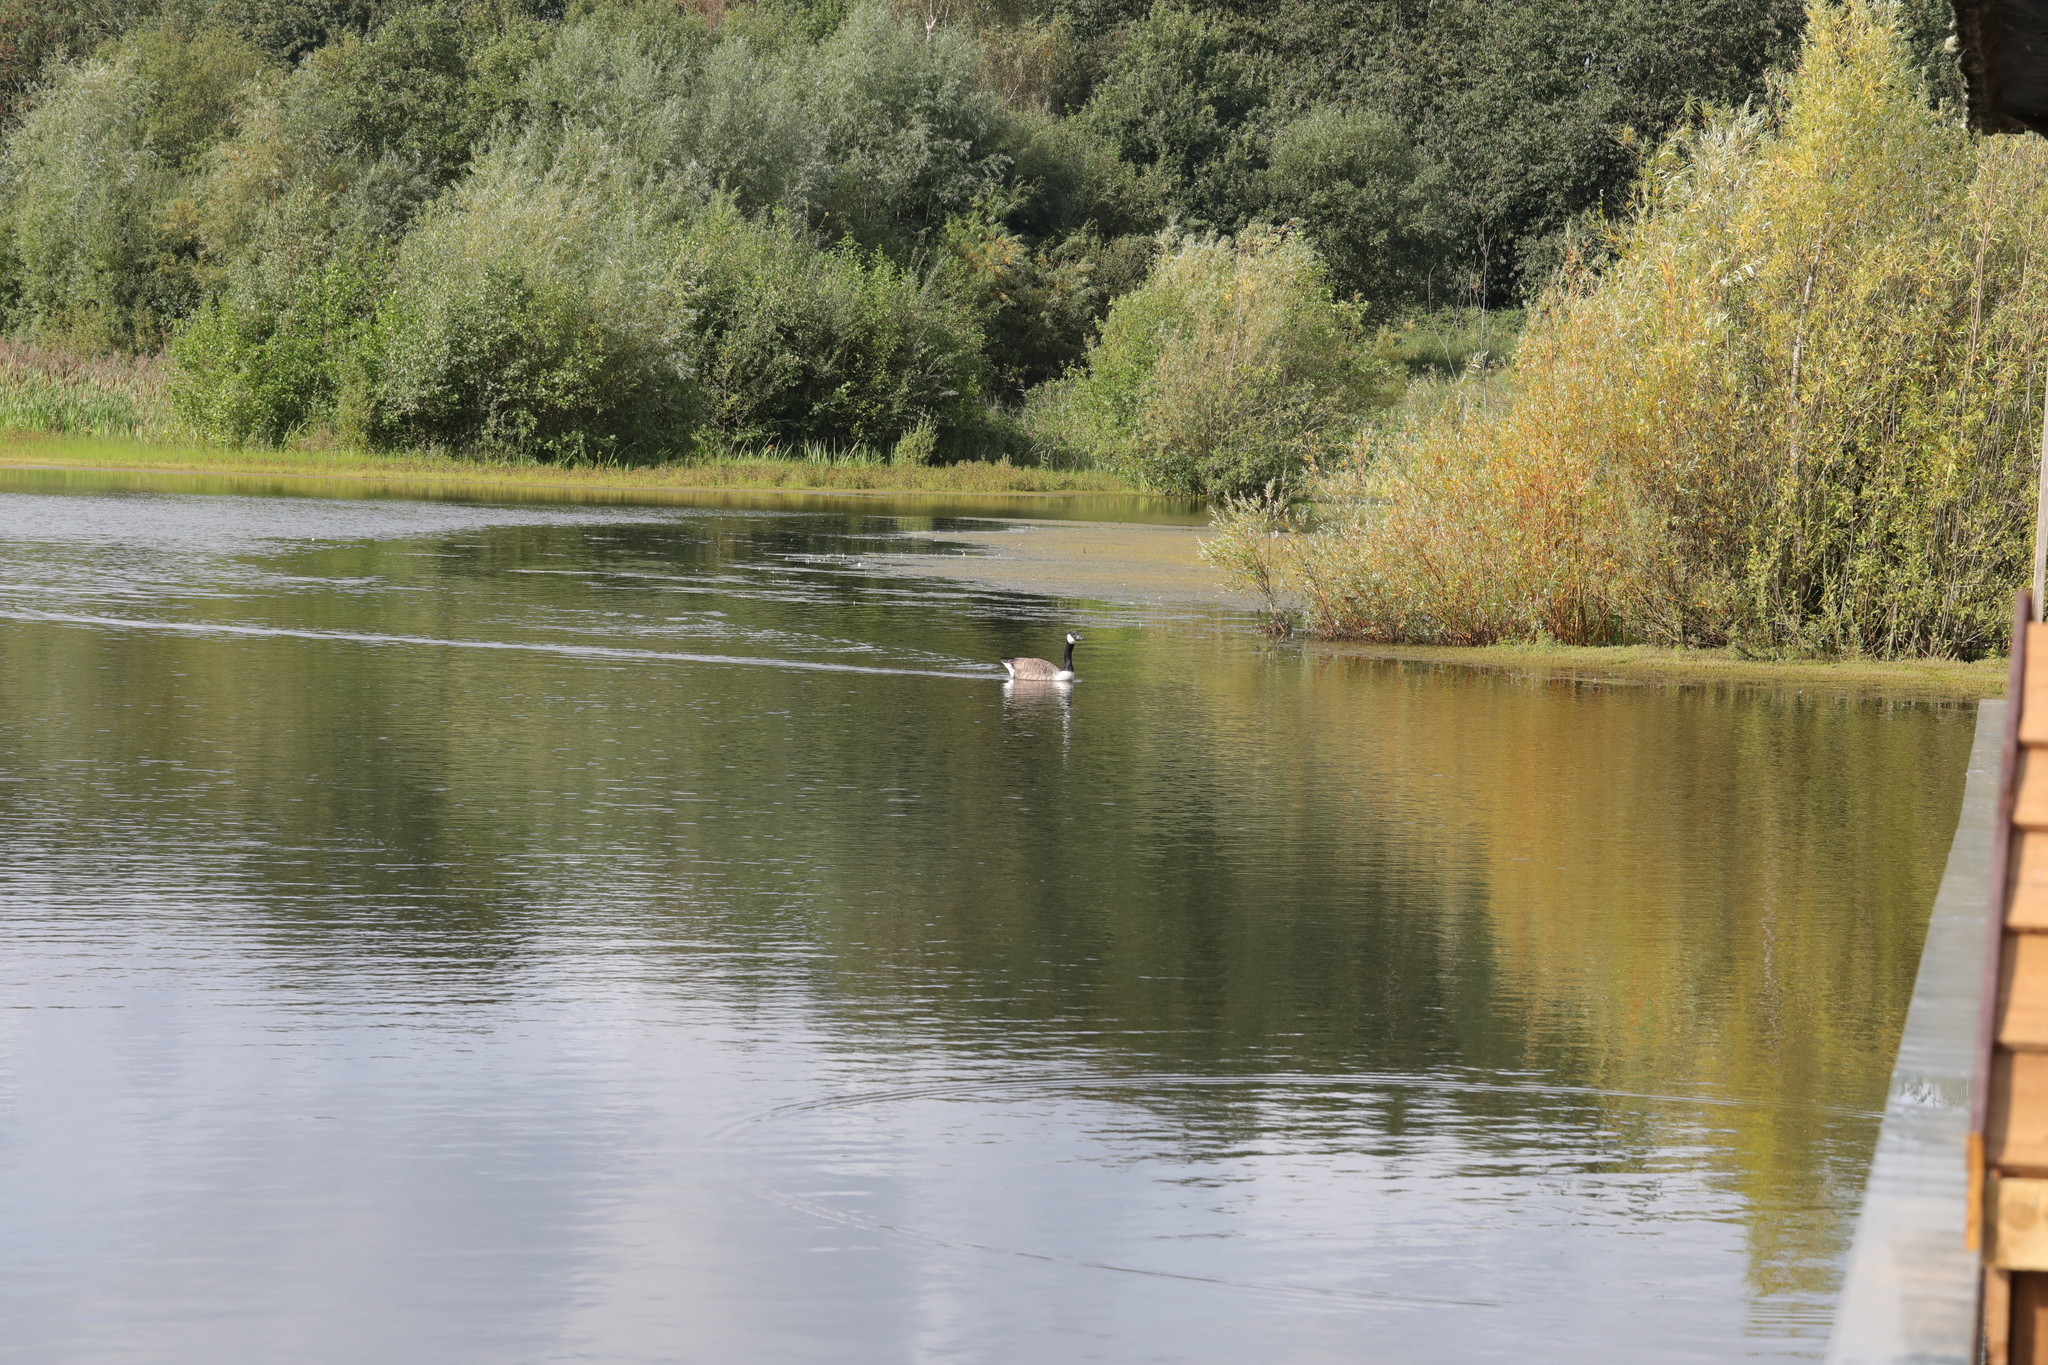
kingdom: Animalia
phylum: Chordata
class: Aves
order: Anseriformes
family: Anatidae
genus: Branta
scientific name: Branta canadensis
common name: Canada goose
